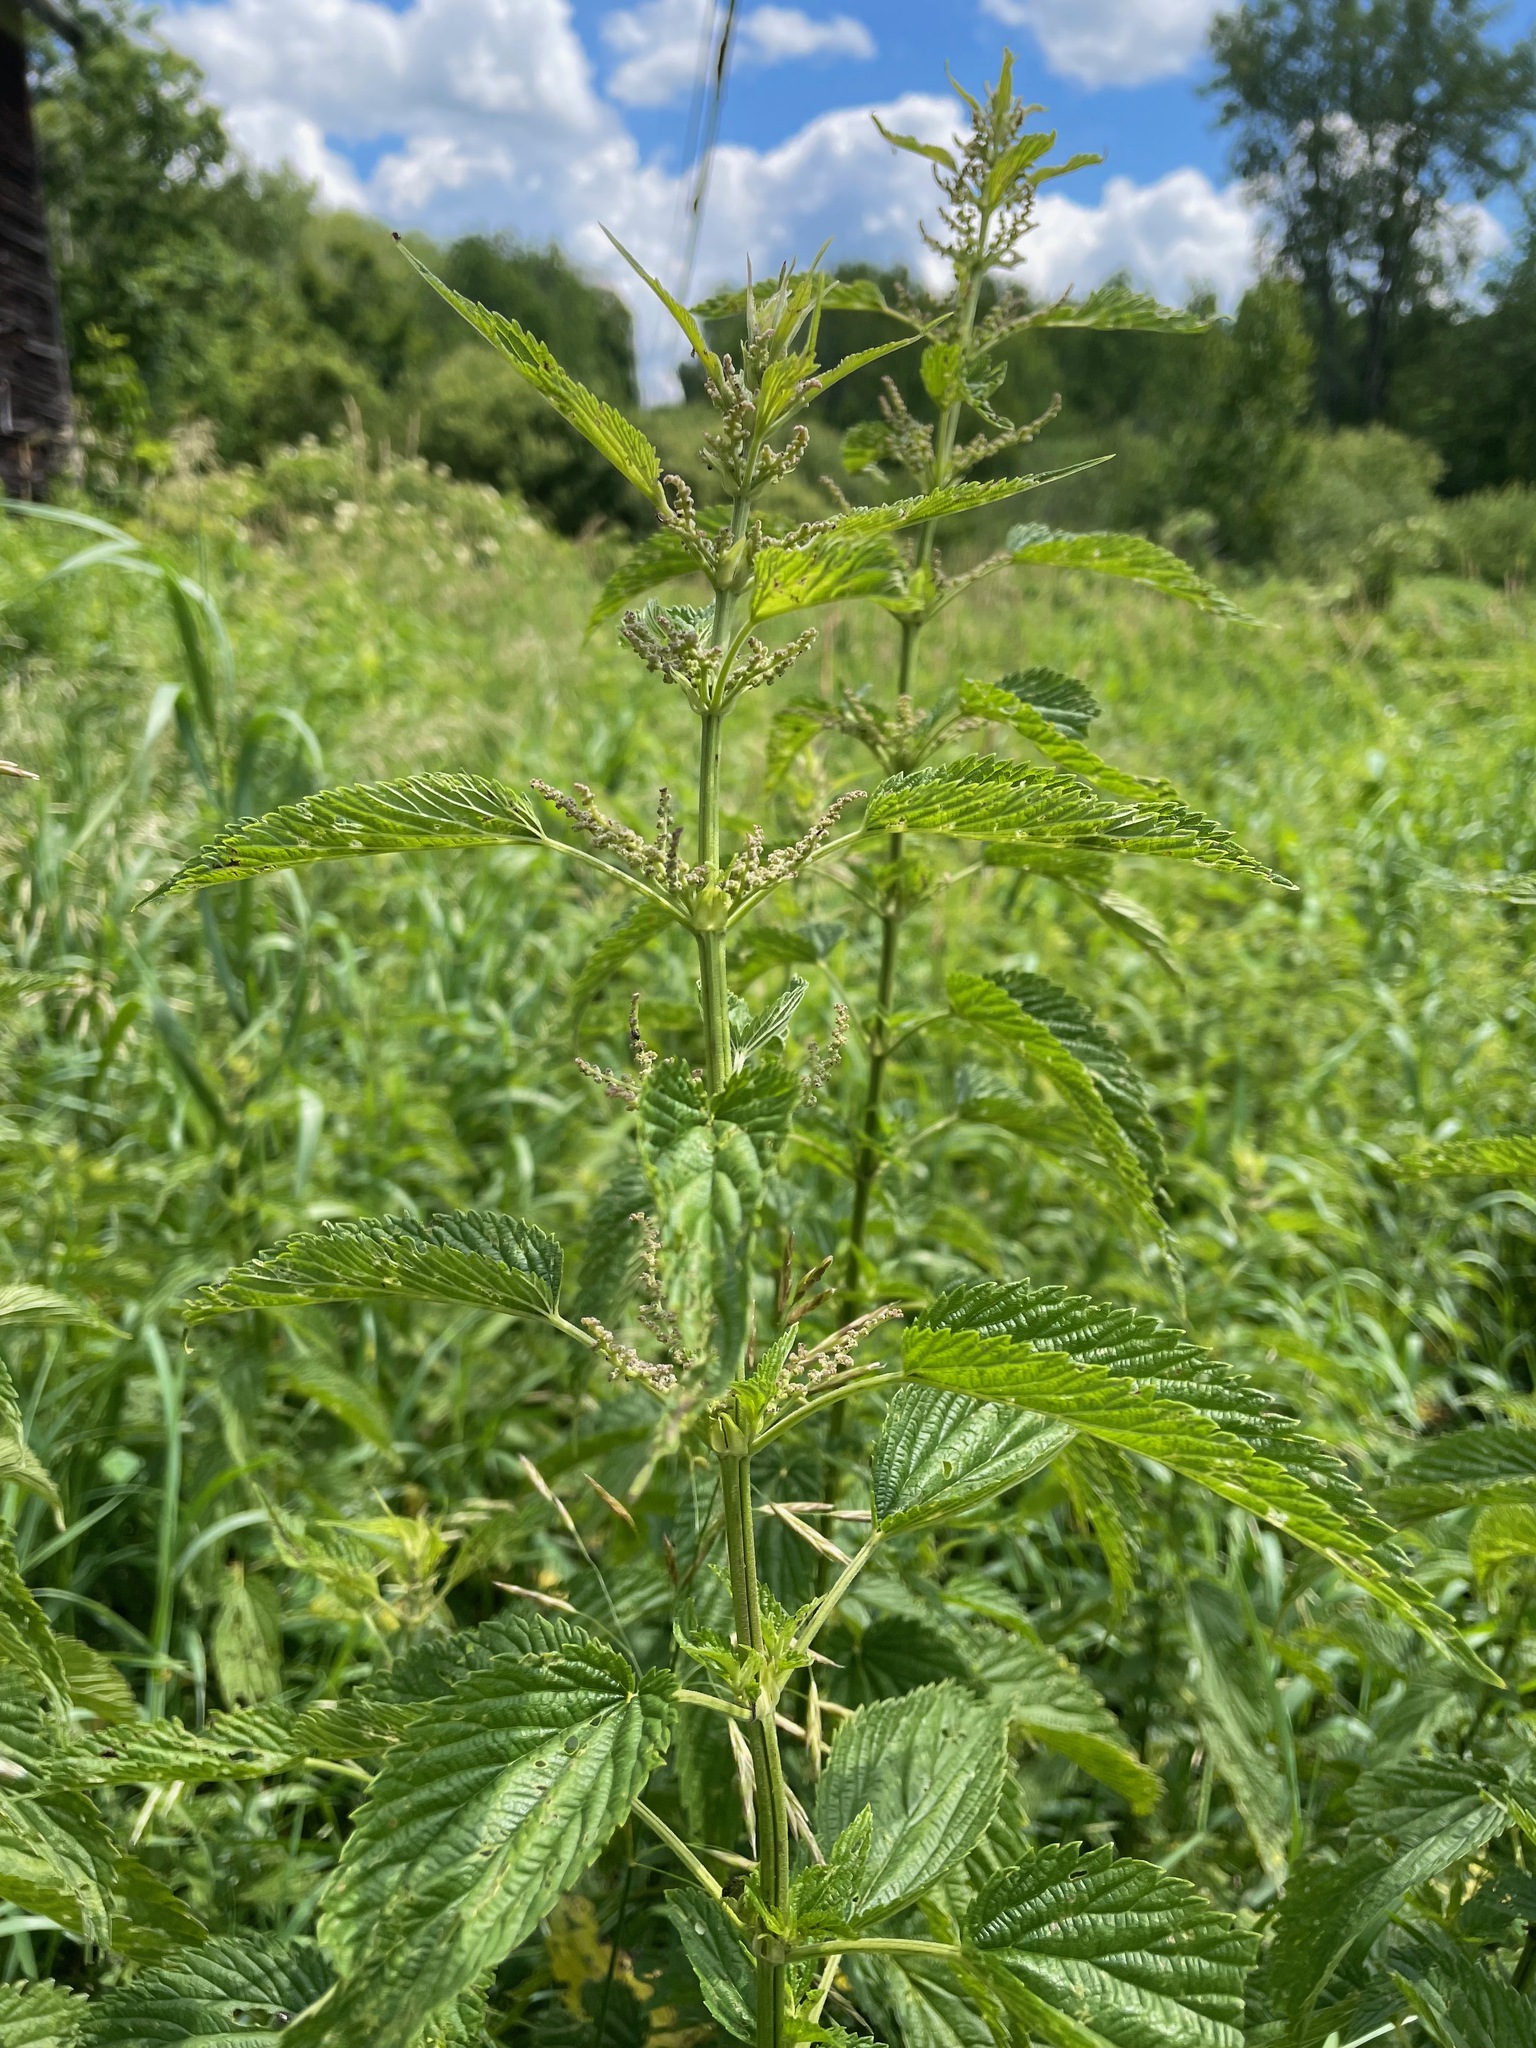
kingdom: Plantae
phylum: Tracheophyta
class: Magnoliopsida
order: Rosales
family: Urticaceae
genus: Urtica
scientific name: Urtica gracilis
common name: Slender stinging nettle
